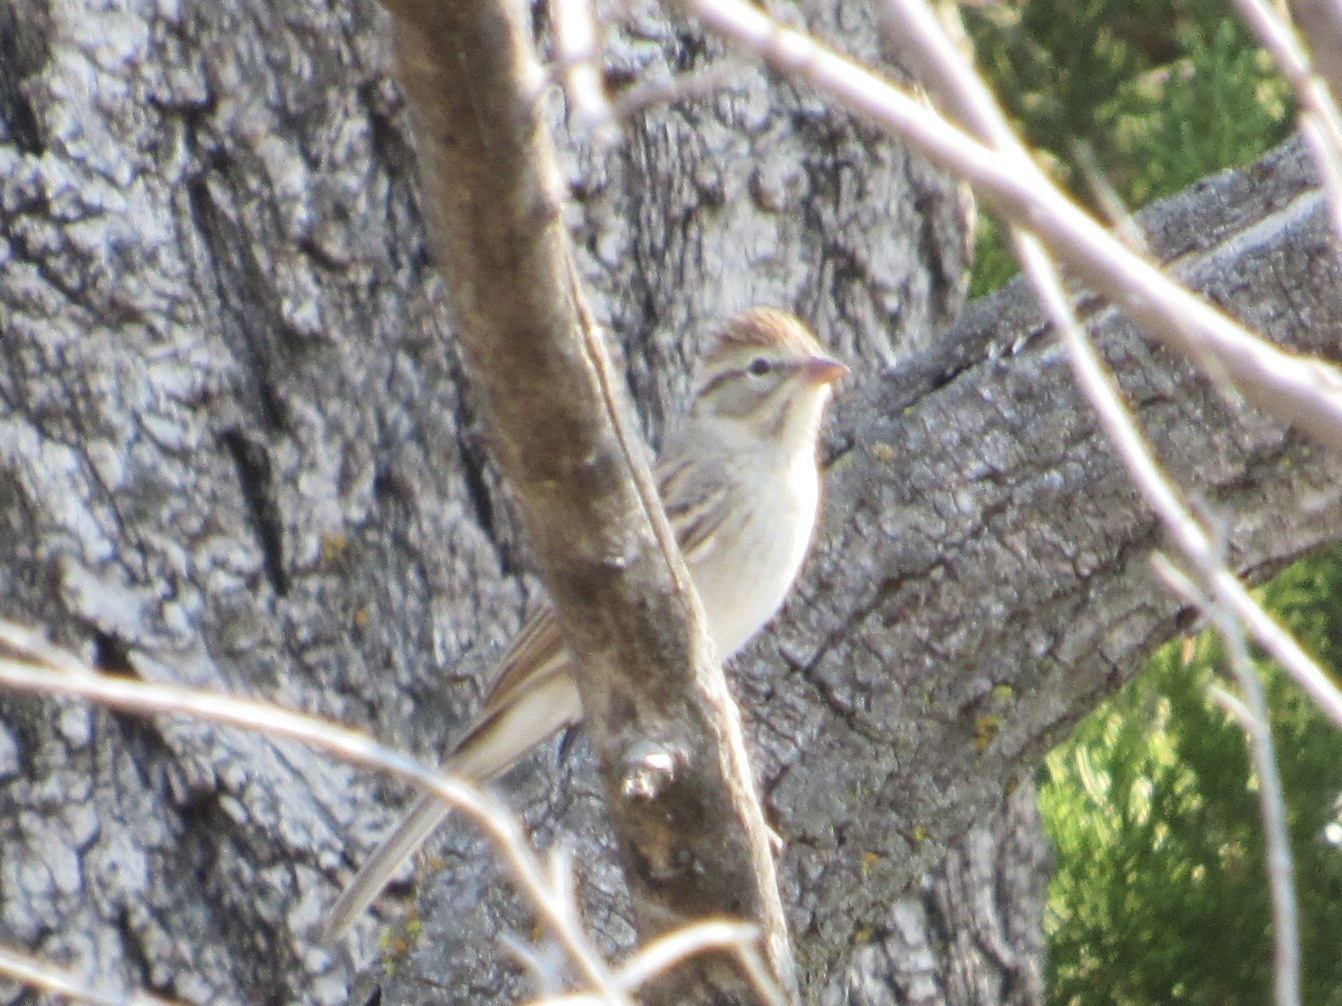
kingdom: Animalia
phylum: Chordata
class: Aves
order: Passeriformes
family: Passerellidae
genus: Spizella
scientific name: Spizella passerina
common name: Chipping sparrow
